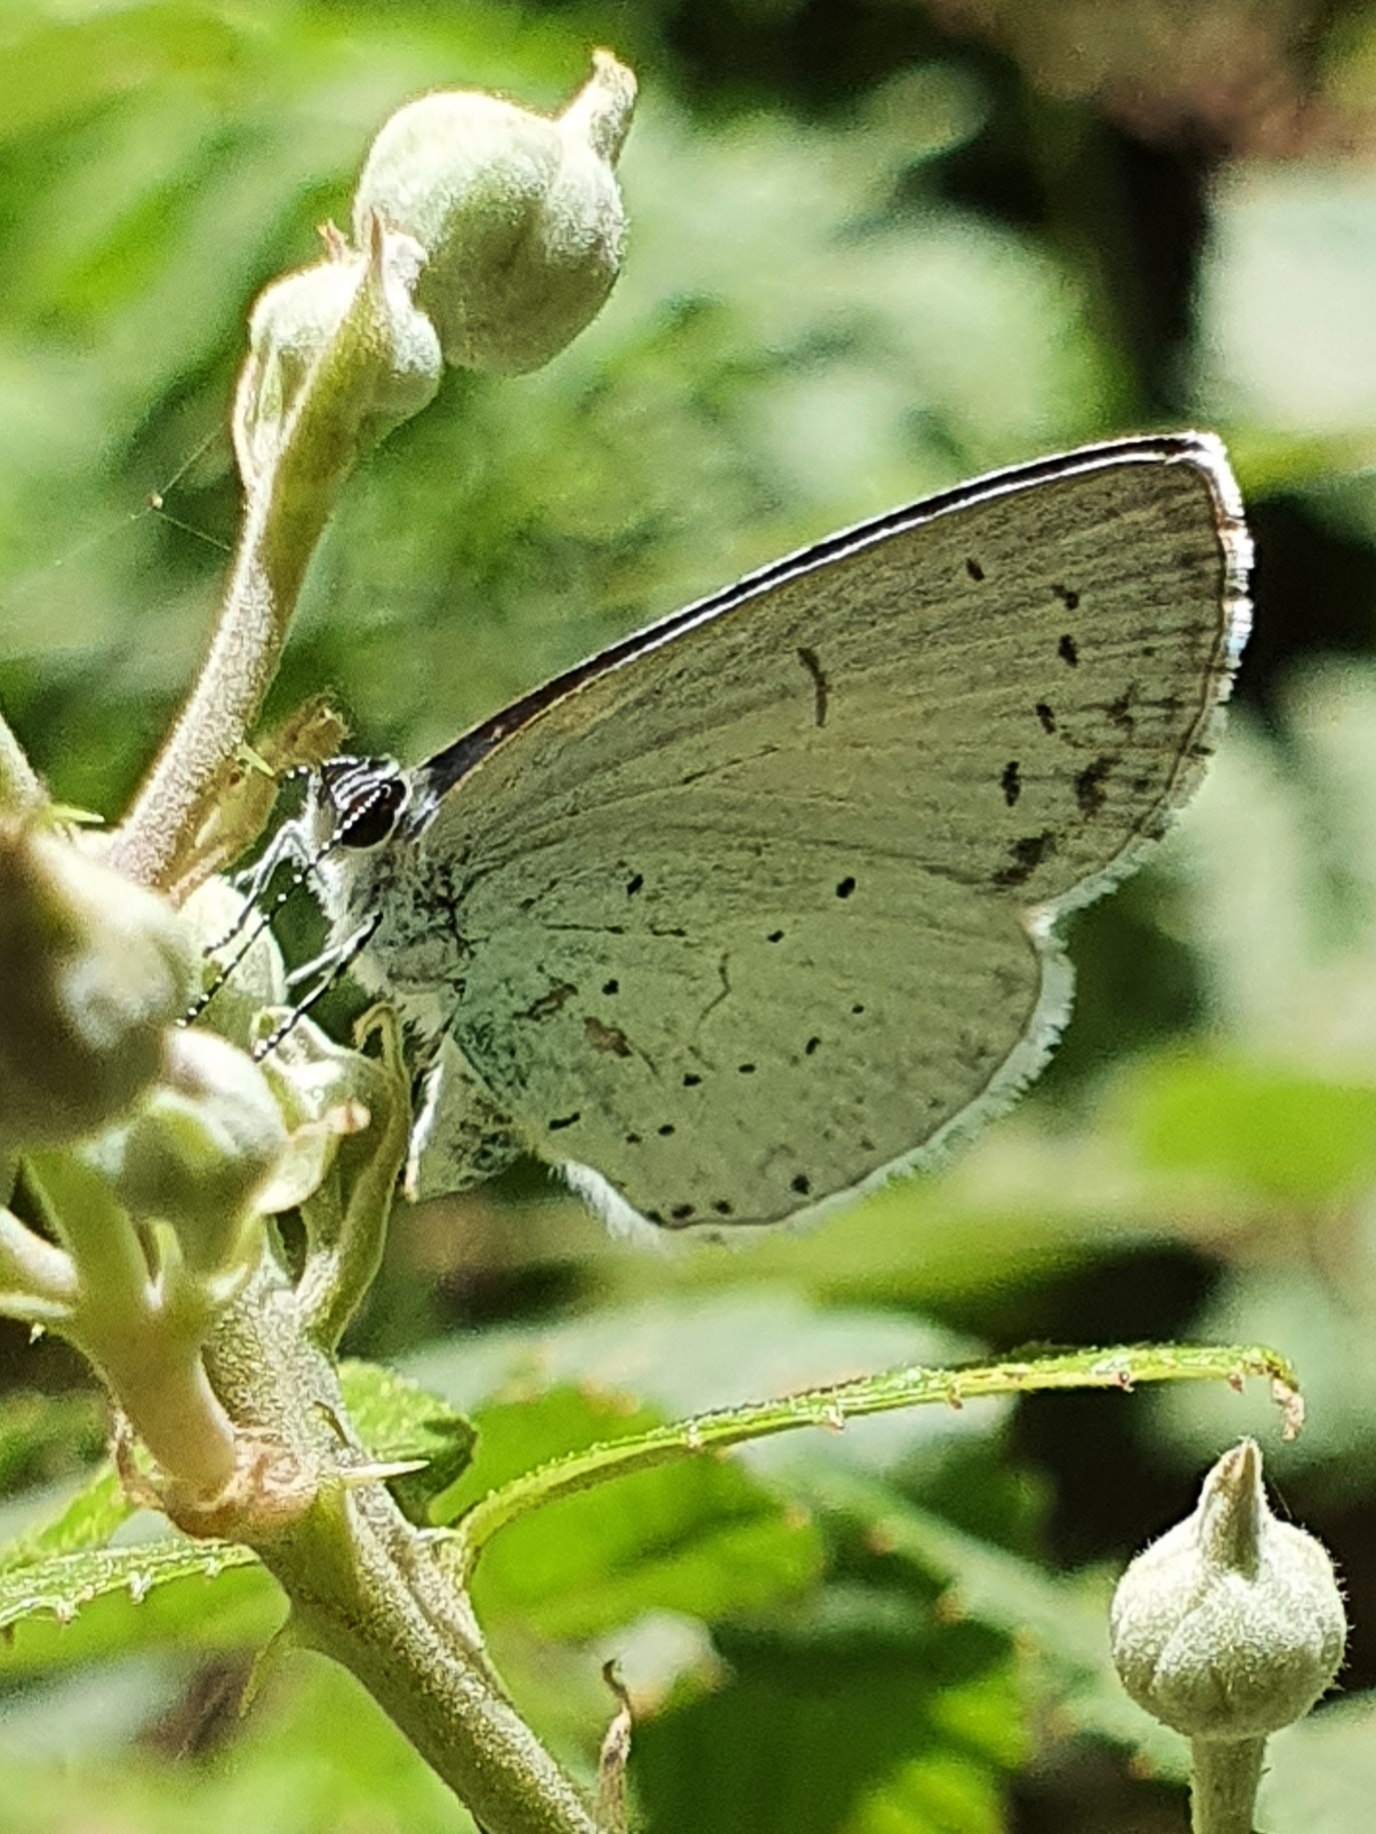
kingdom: Animalia
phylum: Arthropoda
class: Insecta
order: Lepidoptera
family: Lycaenidae
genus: Celastrina
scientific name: Celastrina argiolus
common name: Holly blue
